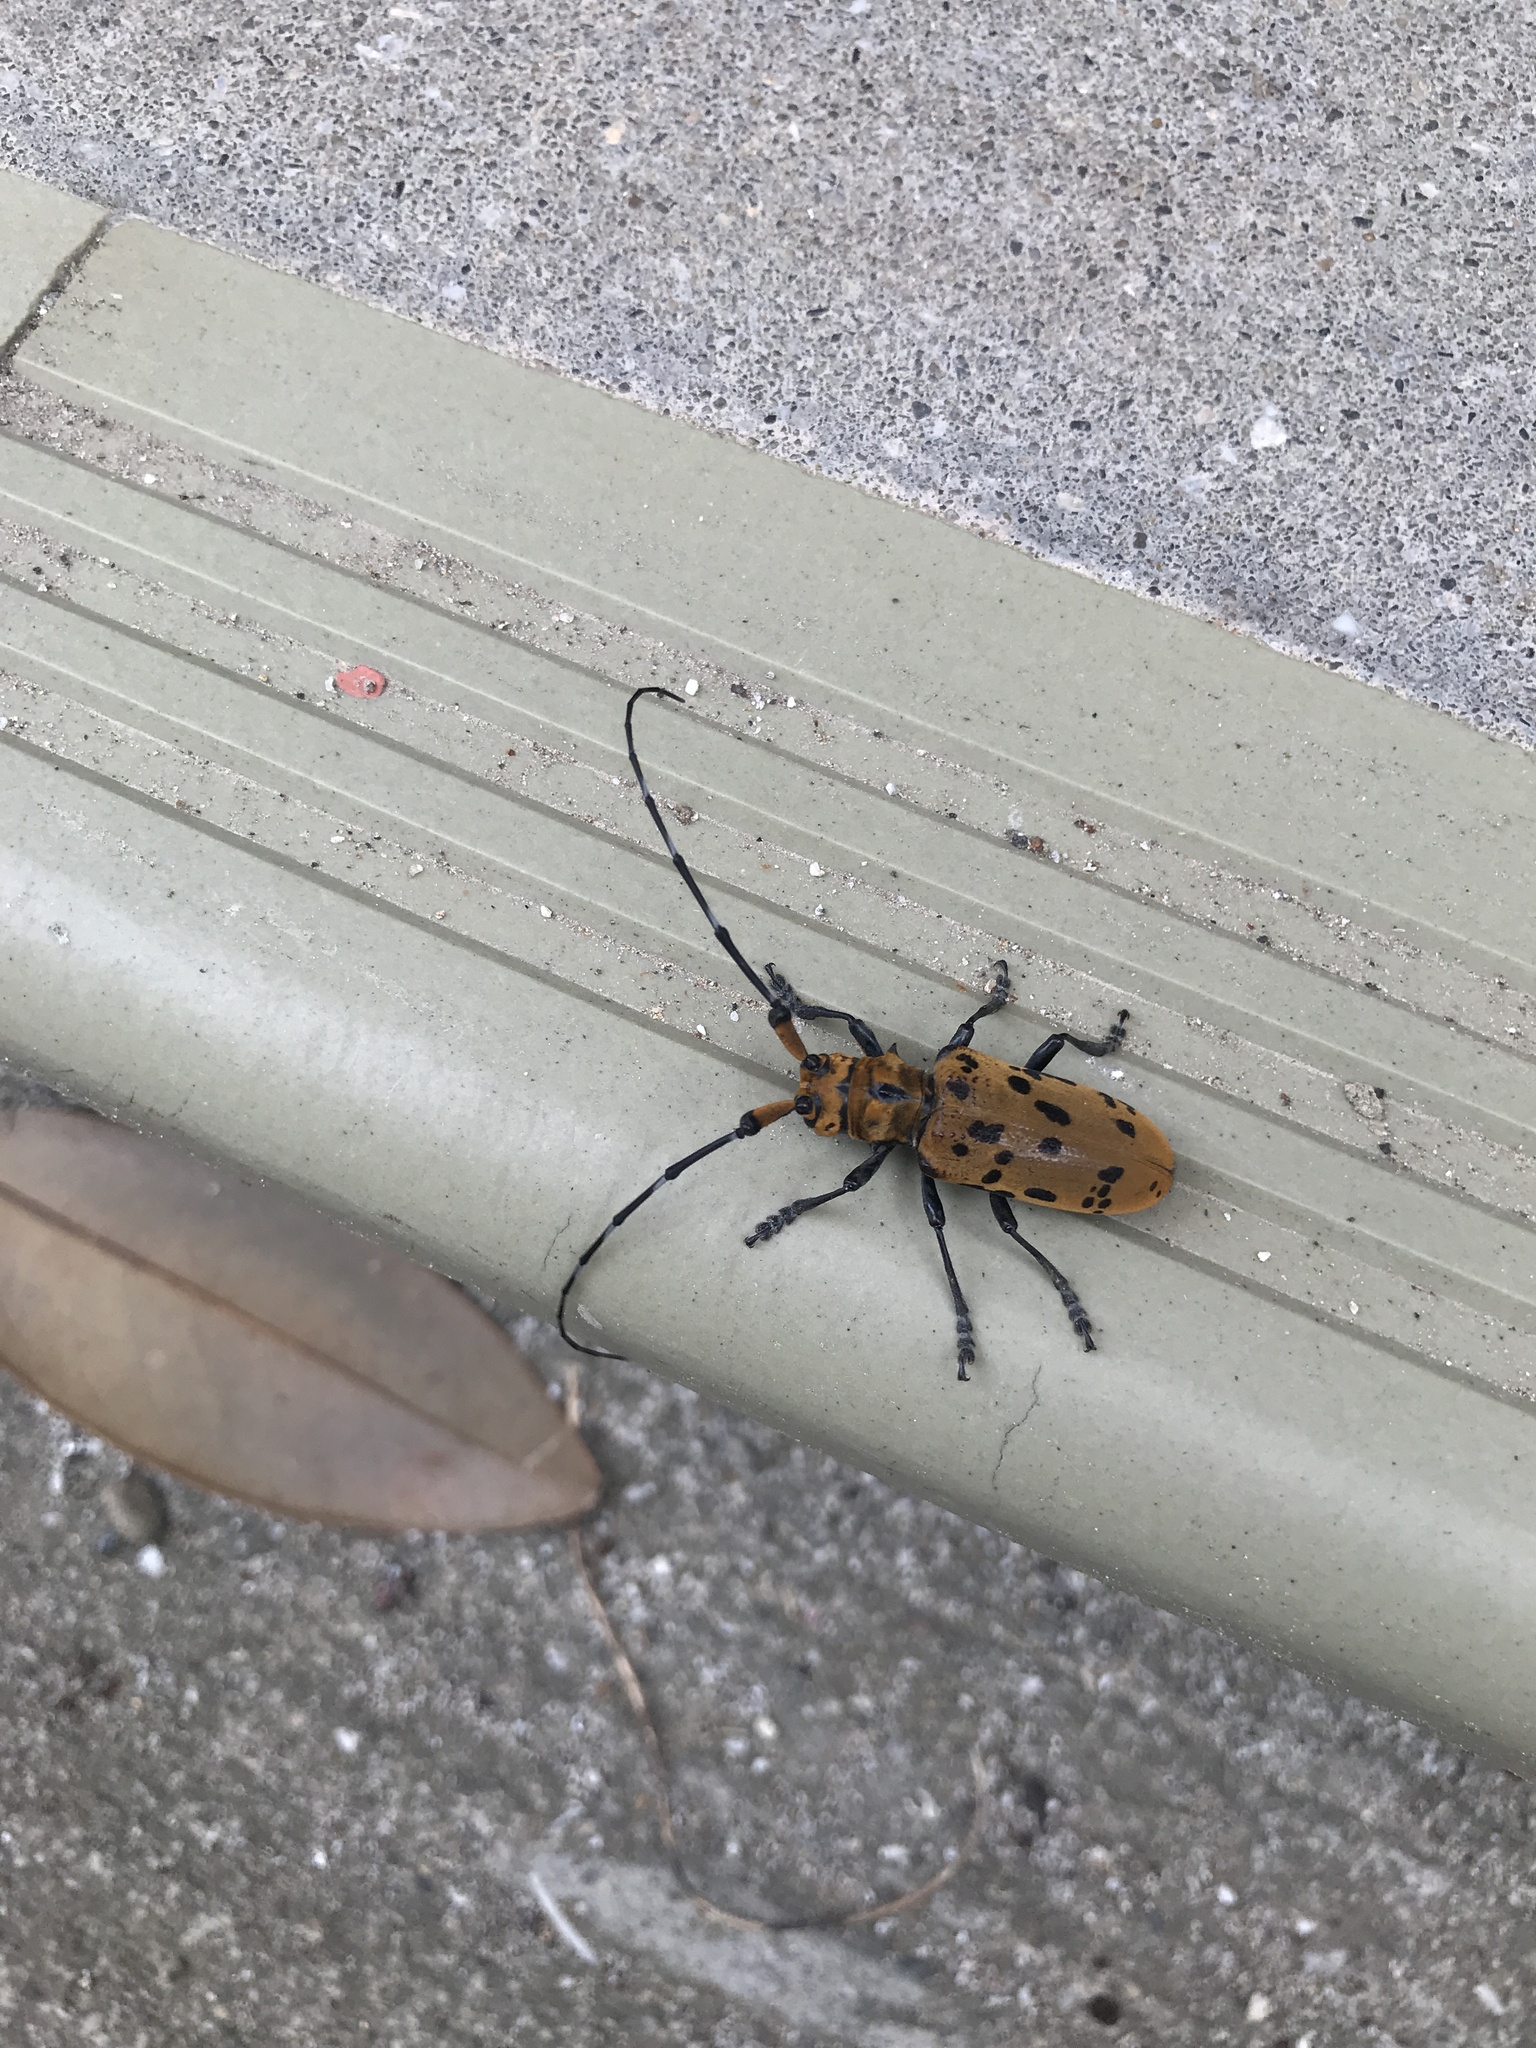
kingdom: Animalia
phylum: Arthropoda
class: Insecta
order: Coleoptera
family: Cerambycidae
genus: Eupromus
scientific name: Eupromus ruber
